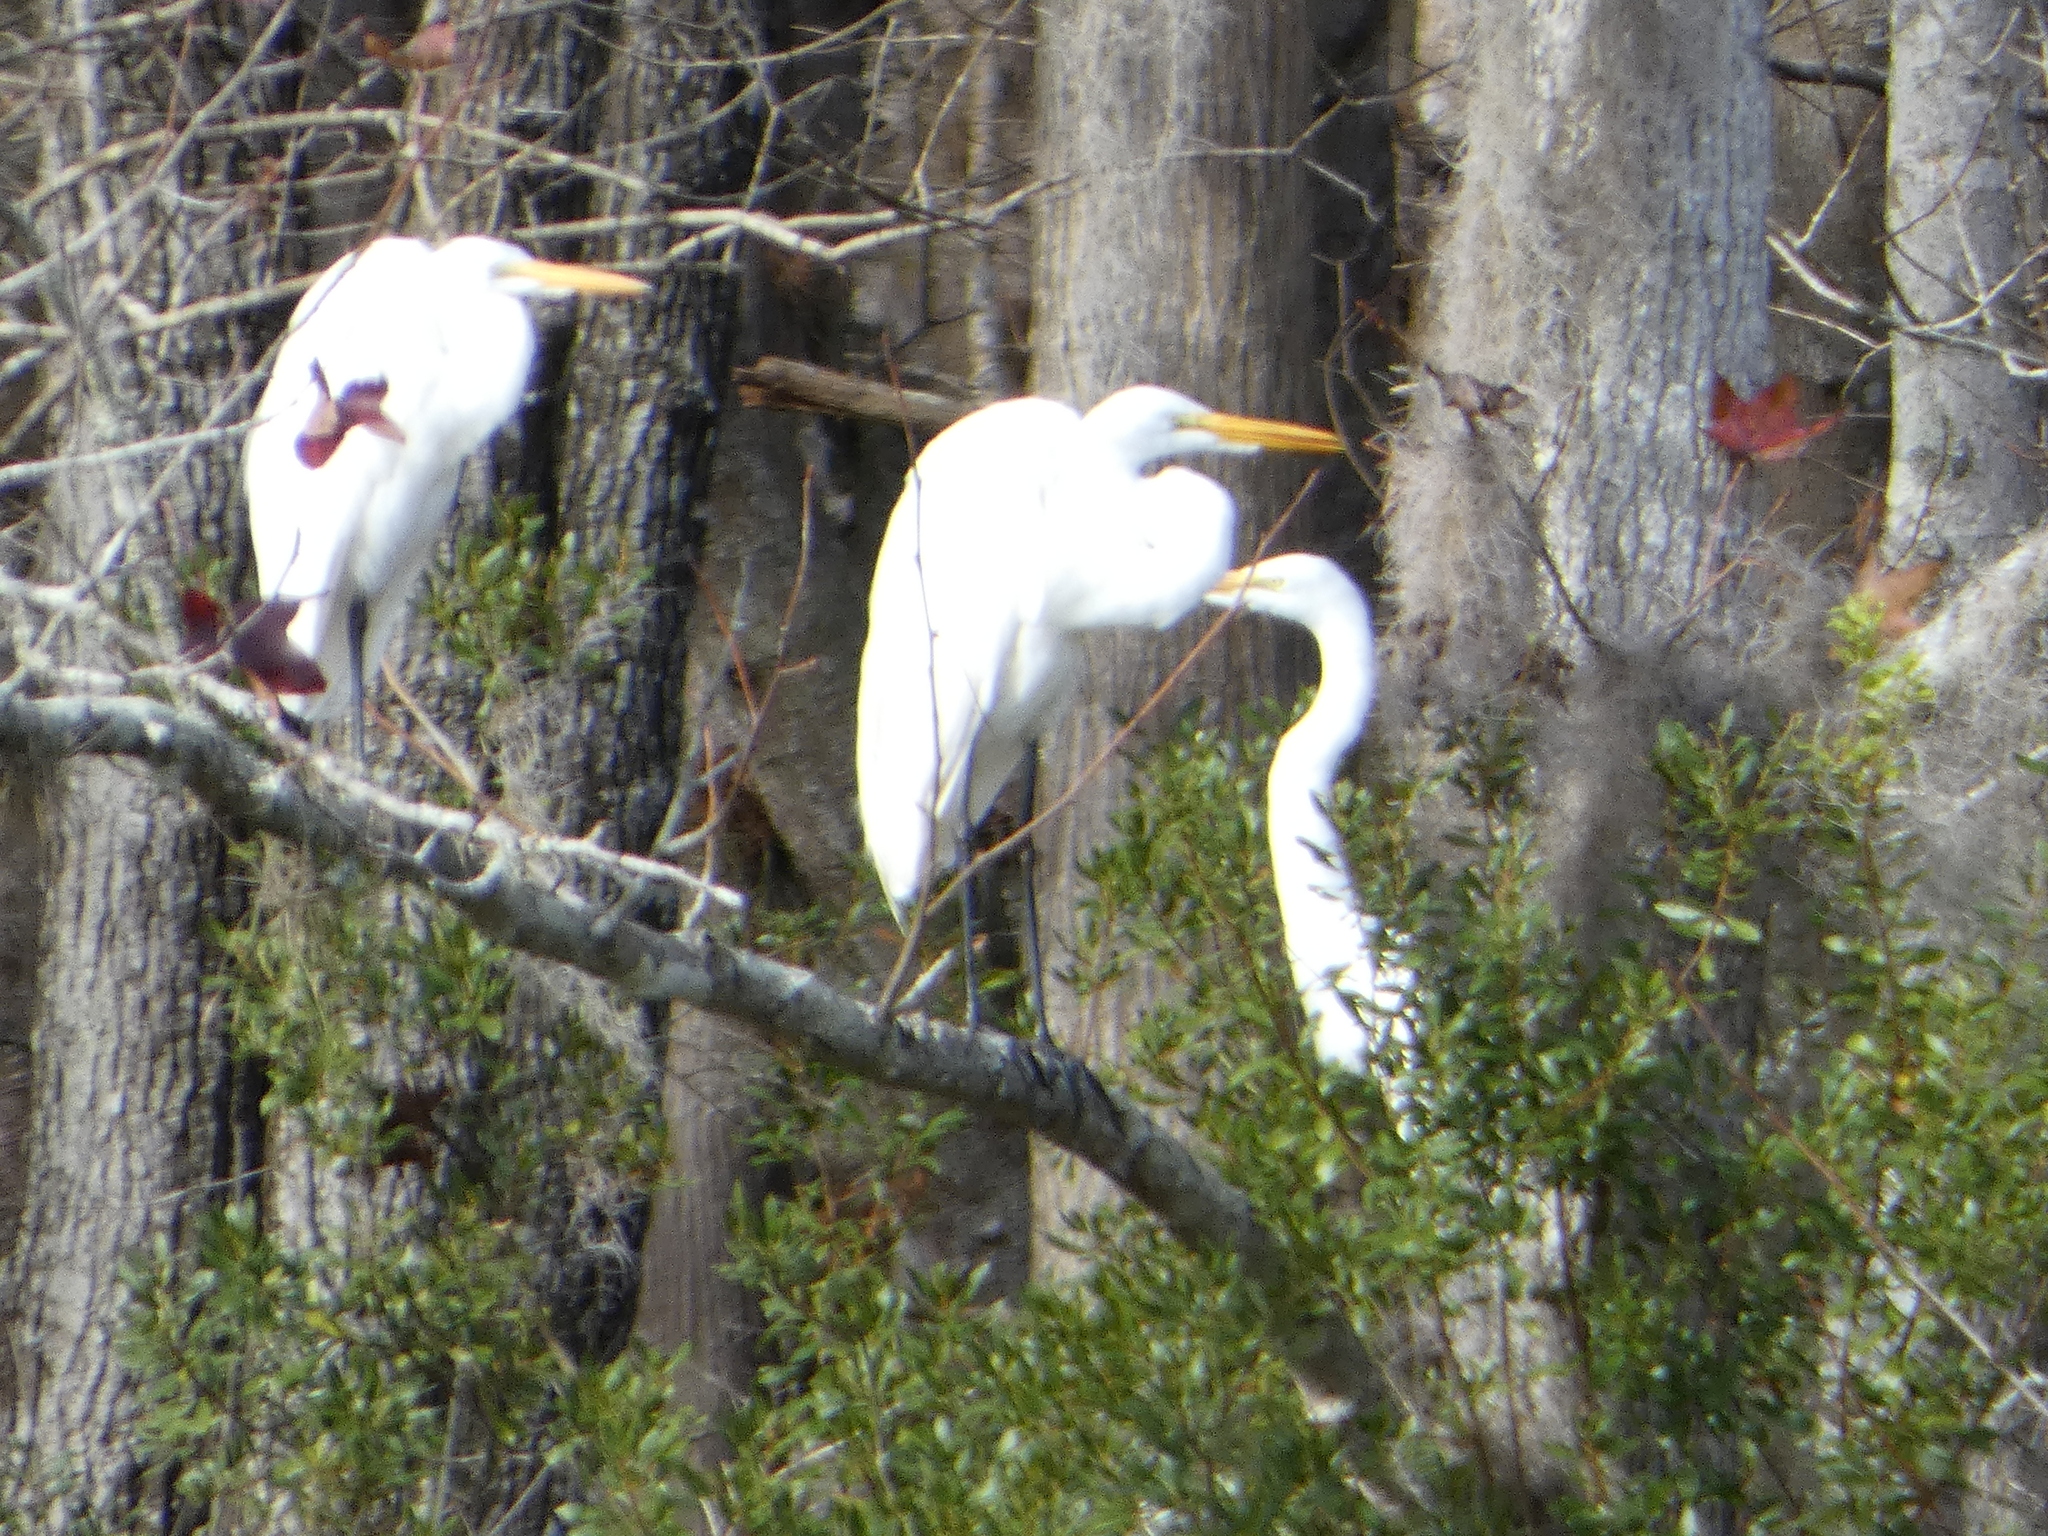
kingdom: Animalia
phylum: Chordata
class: Aves
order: Pelecaniformes
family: Ardeidae
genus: Ardea
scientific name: Ardea alba
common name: Great egret
